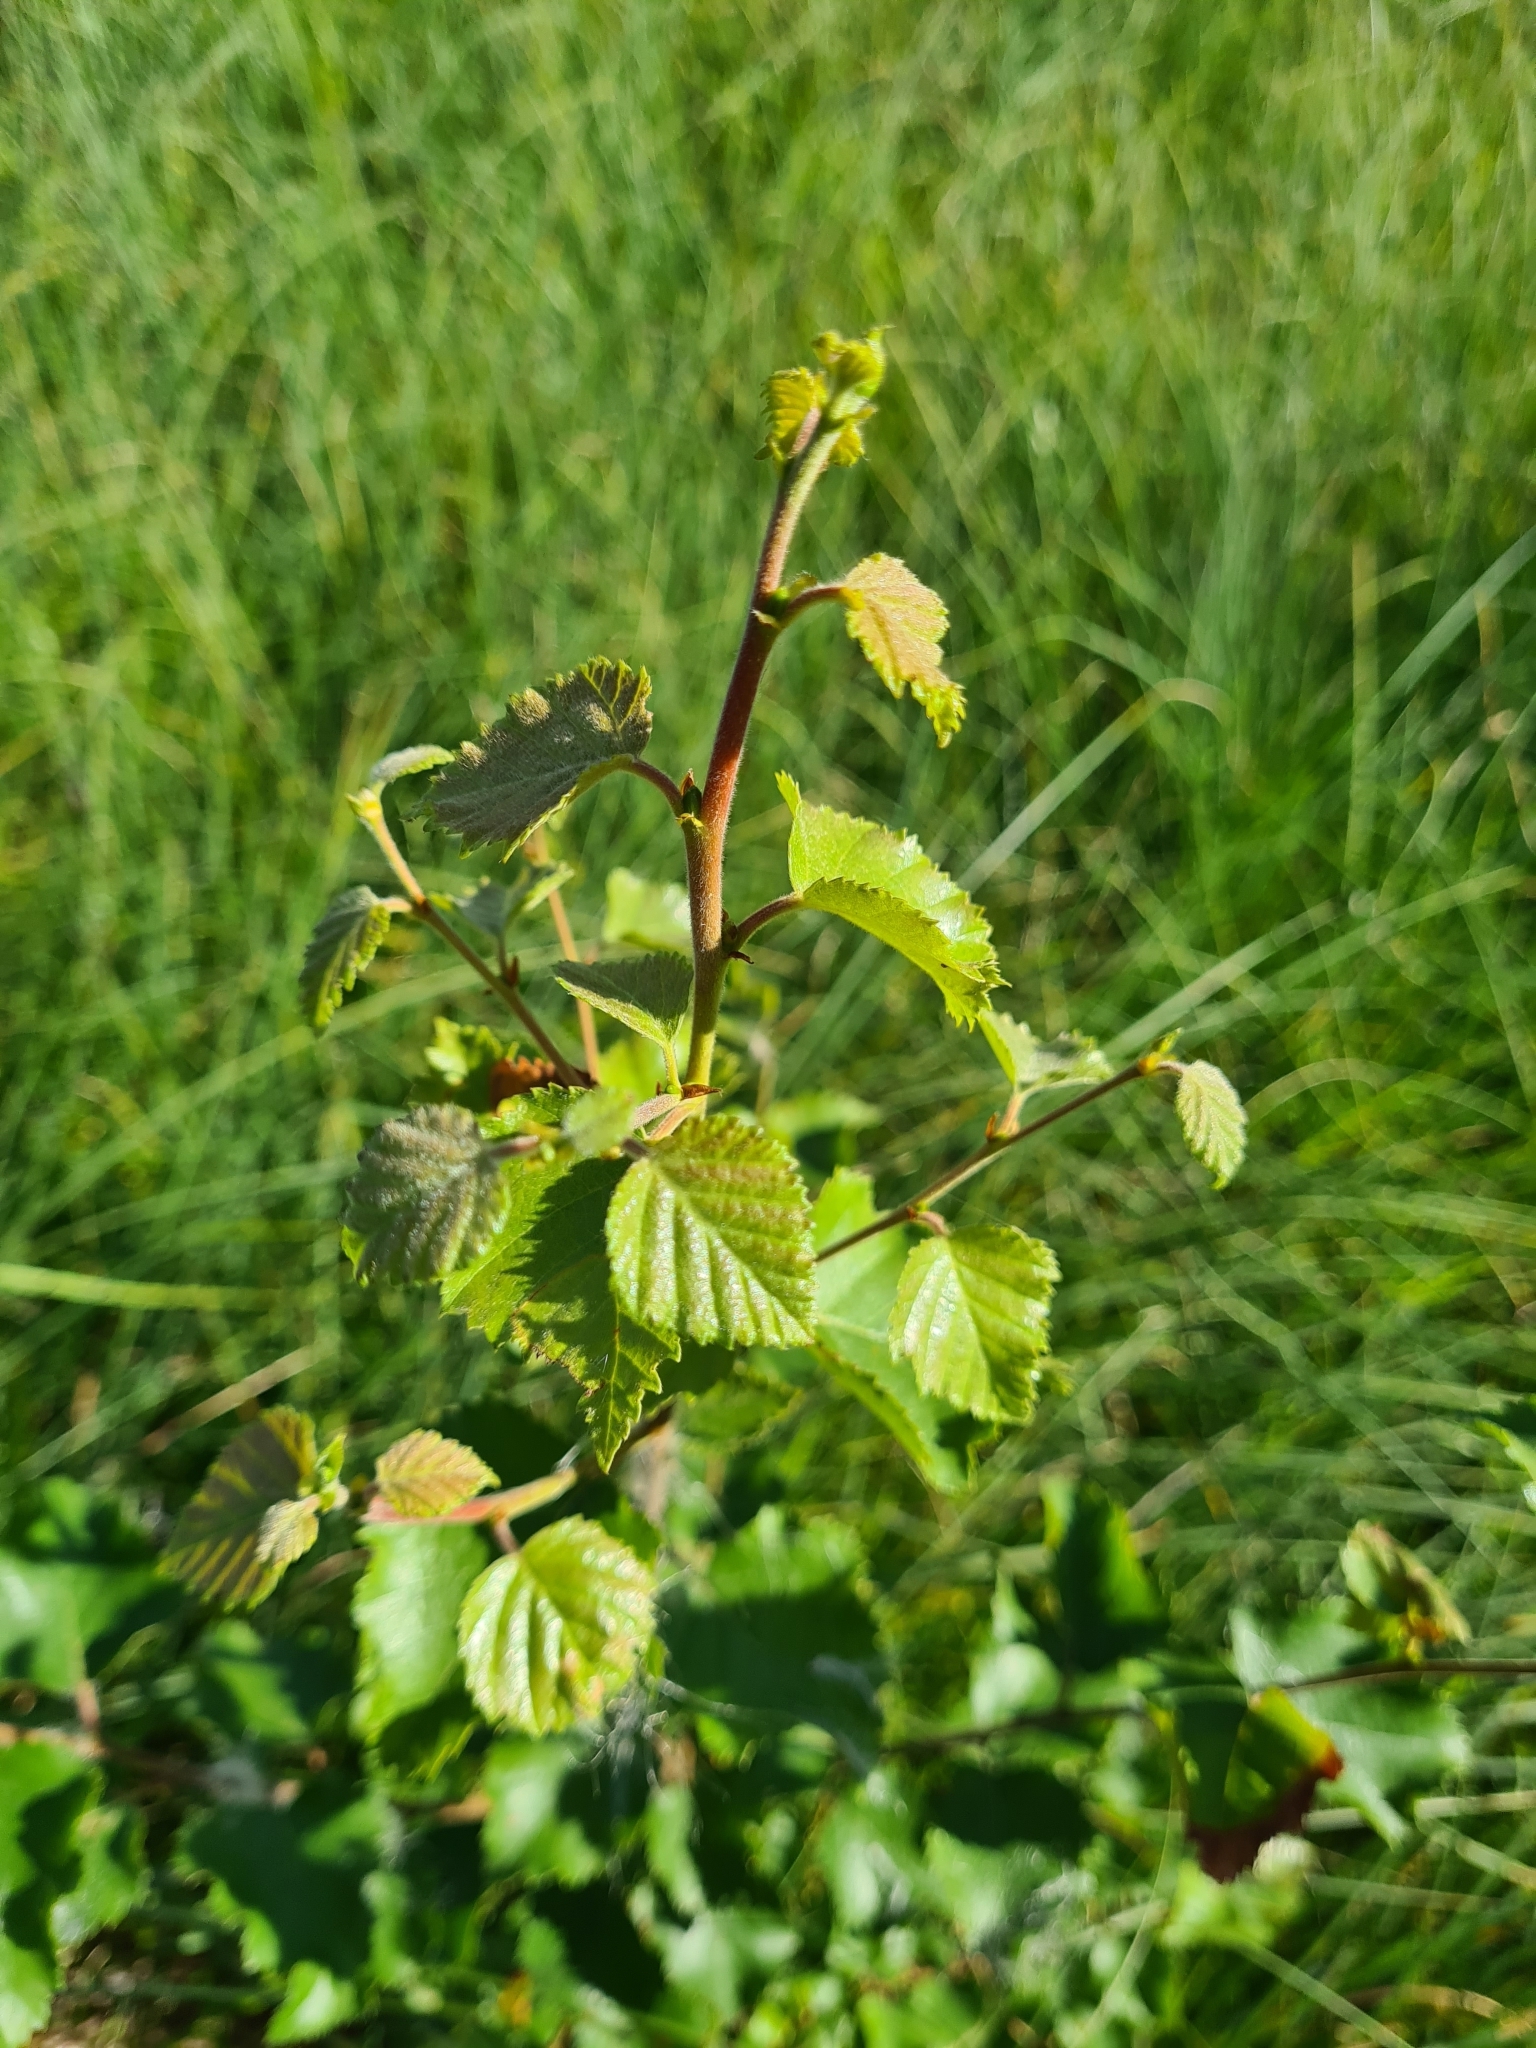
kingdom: Plantae
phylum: Tracheophyta
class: Magnoliopsida
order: Fagales
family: Betulaceae
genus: Betula
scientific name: Betula pendula
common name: Silver birch
